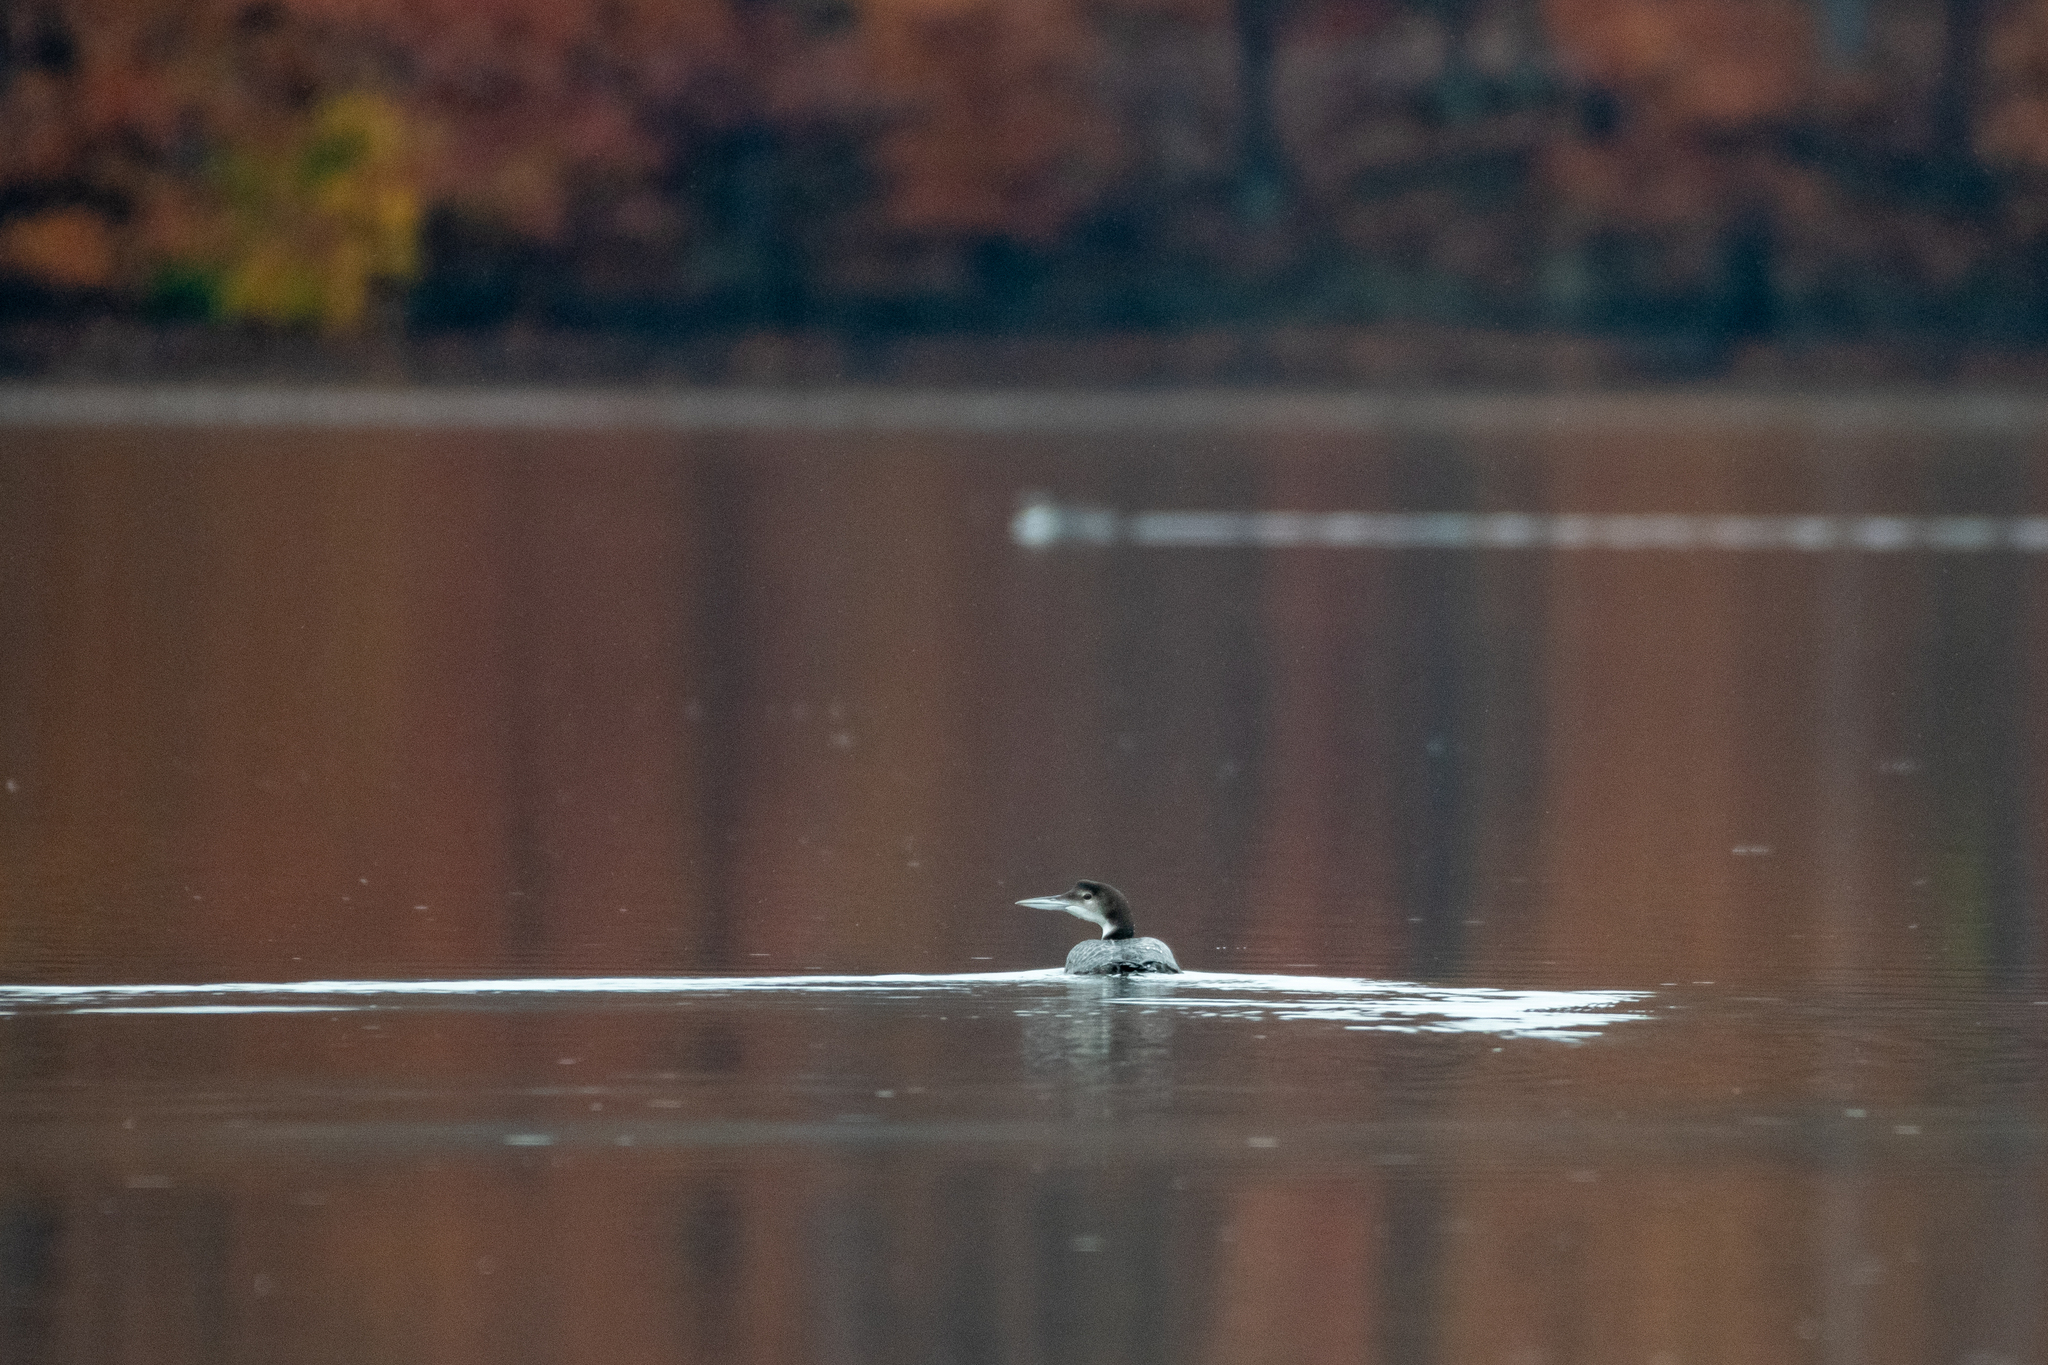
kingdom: Animalia
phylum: Chordata
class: Aves
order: Gaviiformes
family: Gaviidae
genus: Gavia
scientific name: Gavia immer
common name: Common loon
